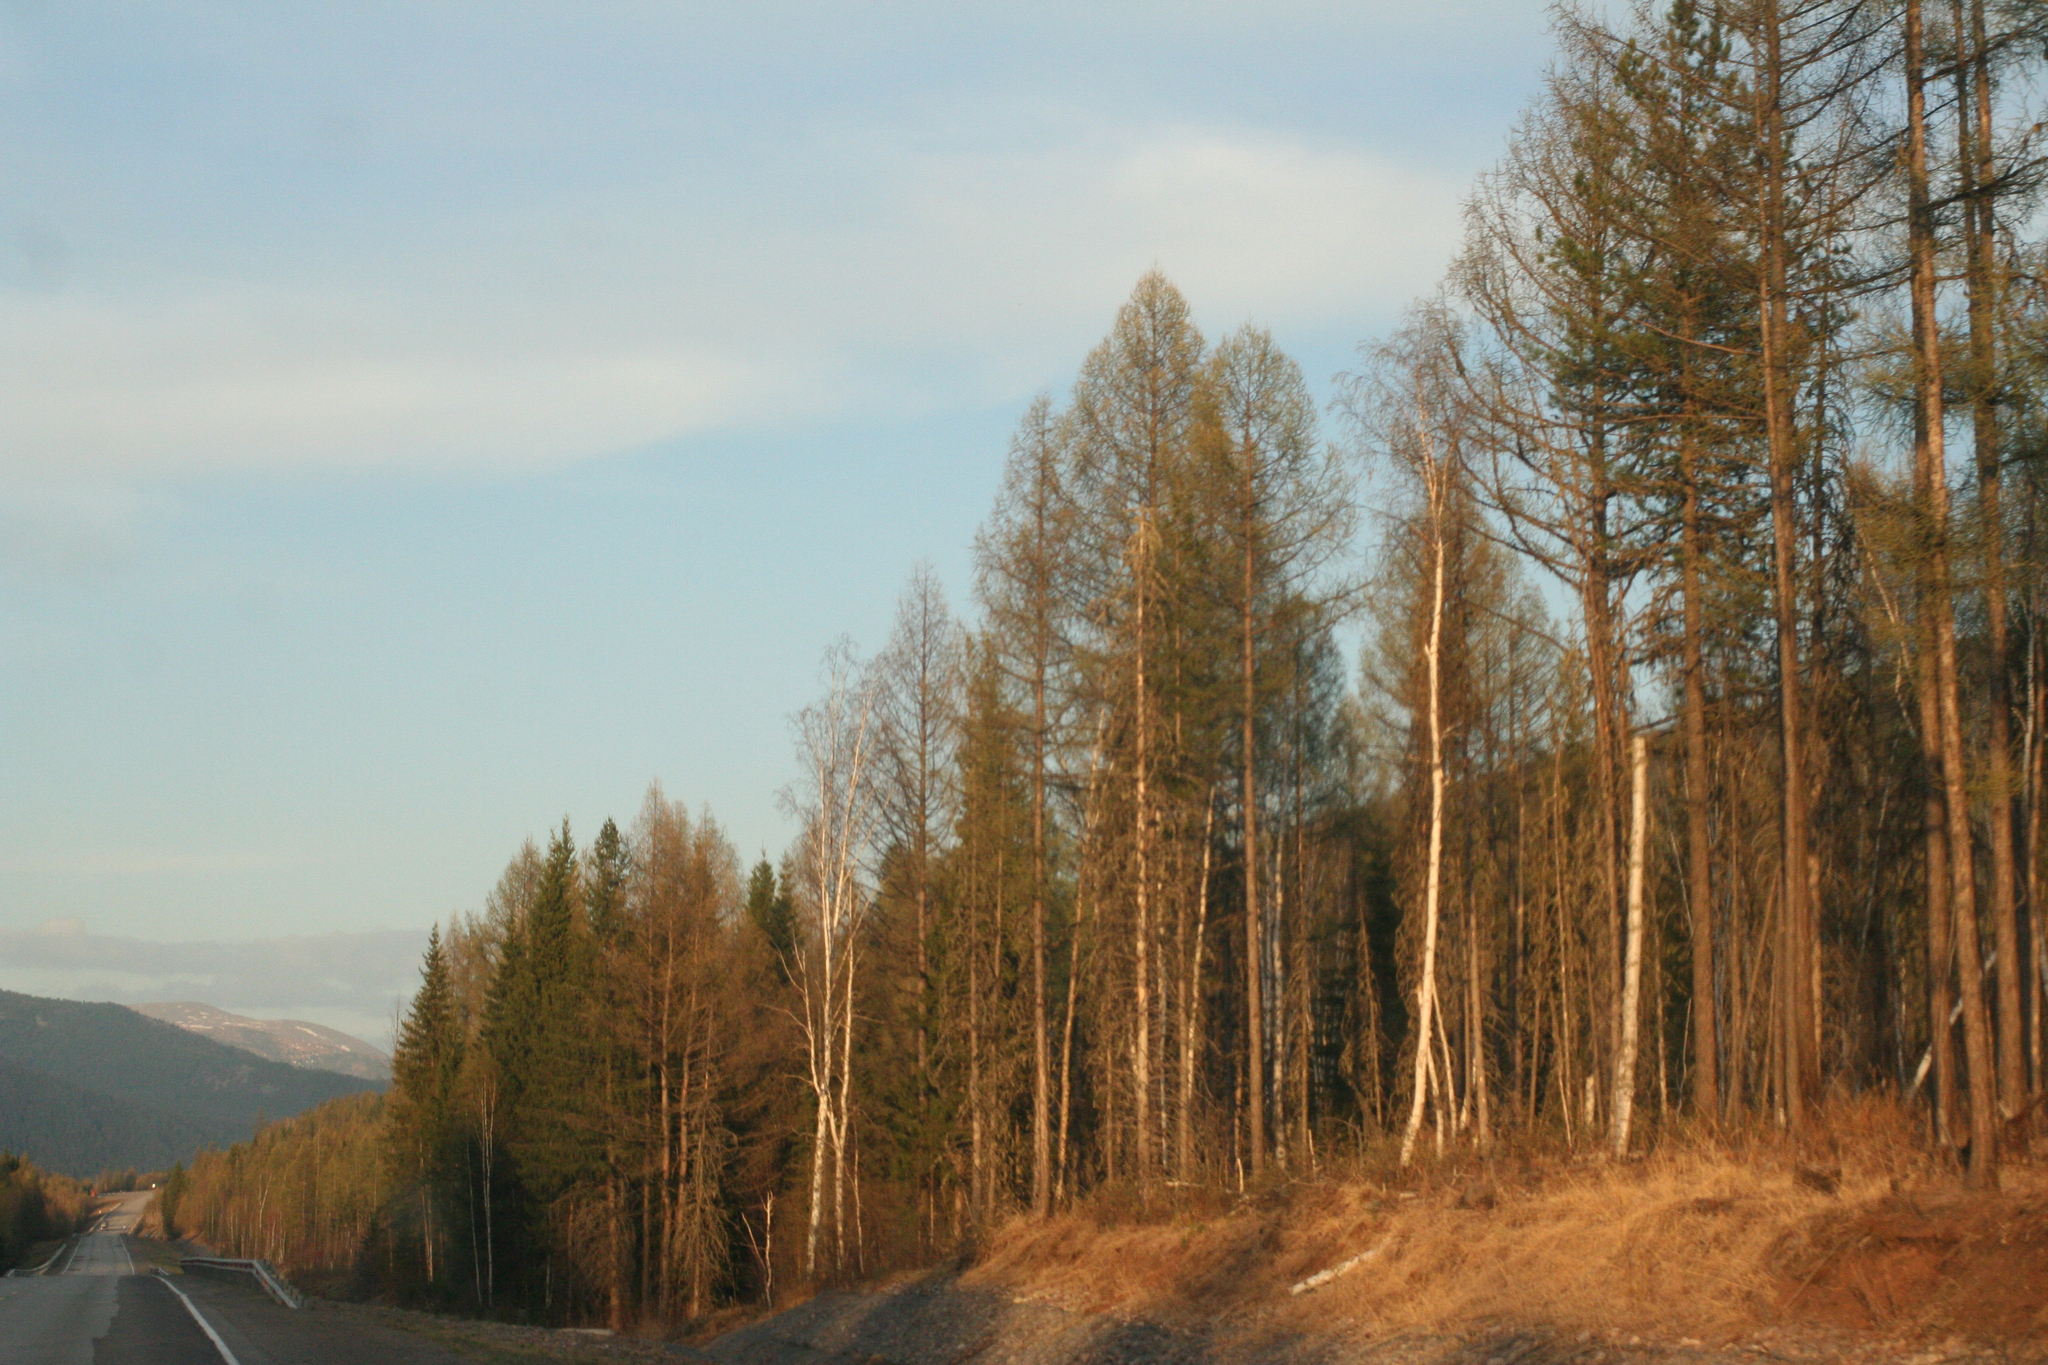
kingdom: Plantae
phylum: Tracheophyta
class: Pinopsida
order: Pinales
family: Pinaceae
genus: Larix
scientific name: Larix sibirica
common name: Siberian larch
